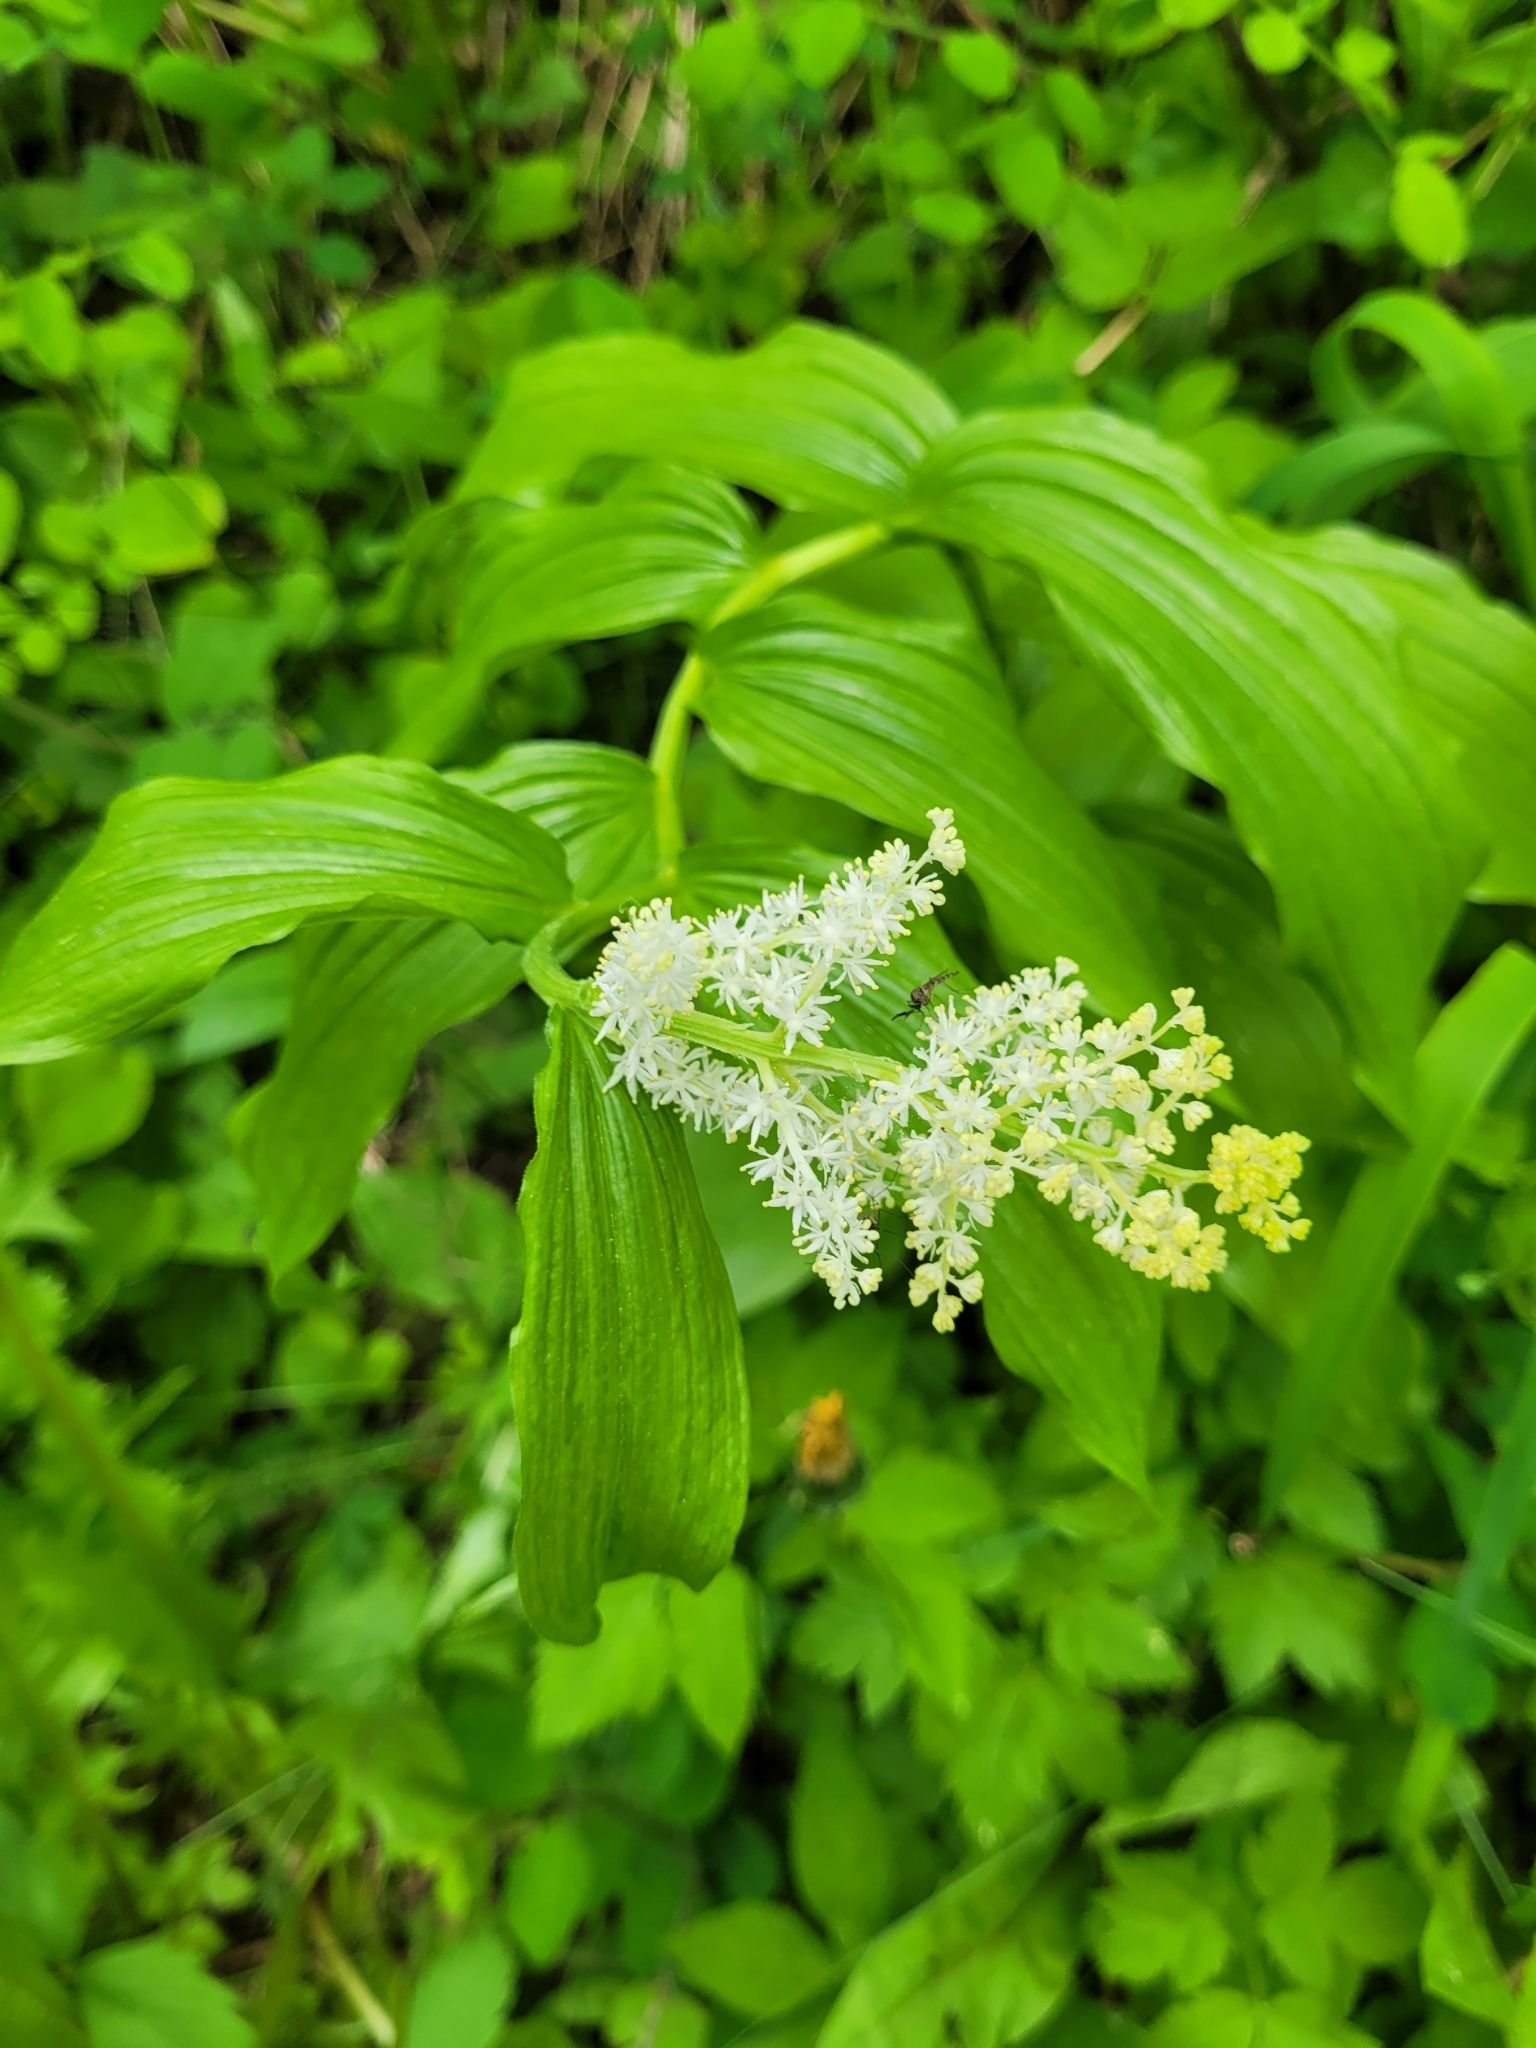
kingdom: Plantae
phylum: Tracheophyta
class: Liliopsida
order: Asparagales
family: Asparagaceae
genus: Maianthemum
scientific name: Maianthemum racemosum
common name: False spikenard
